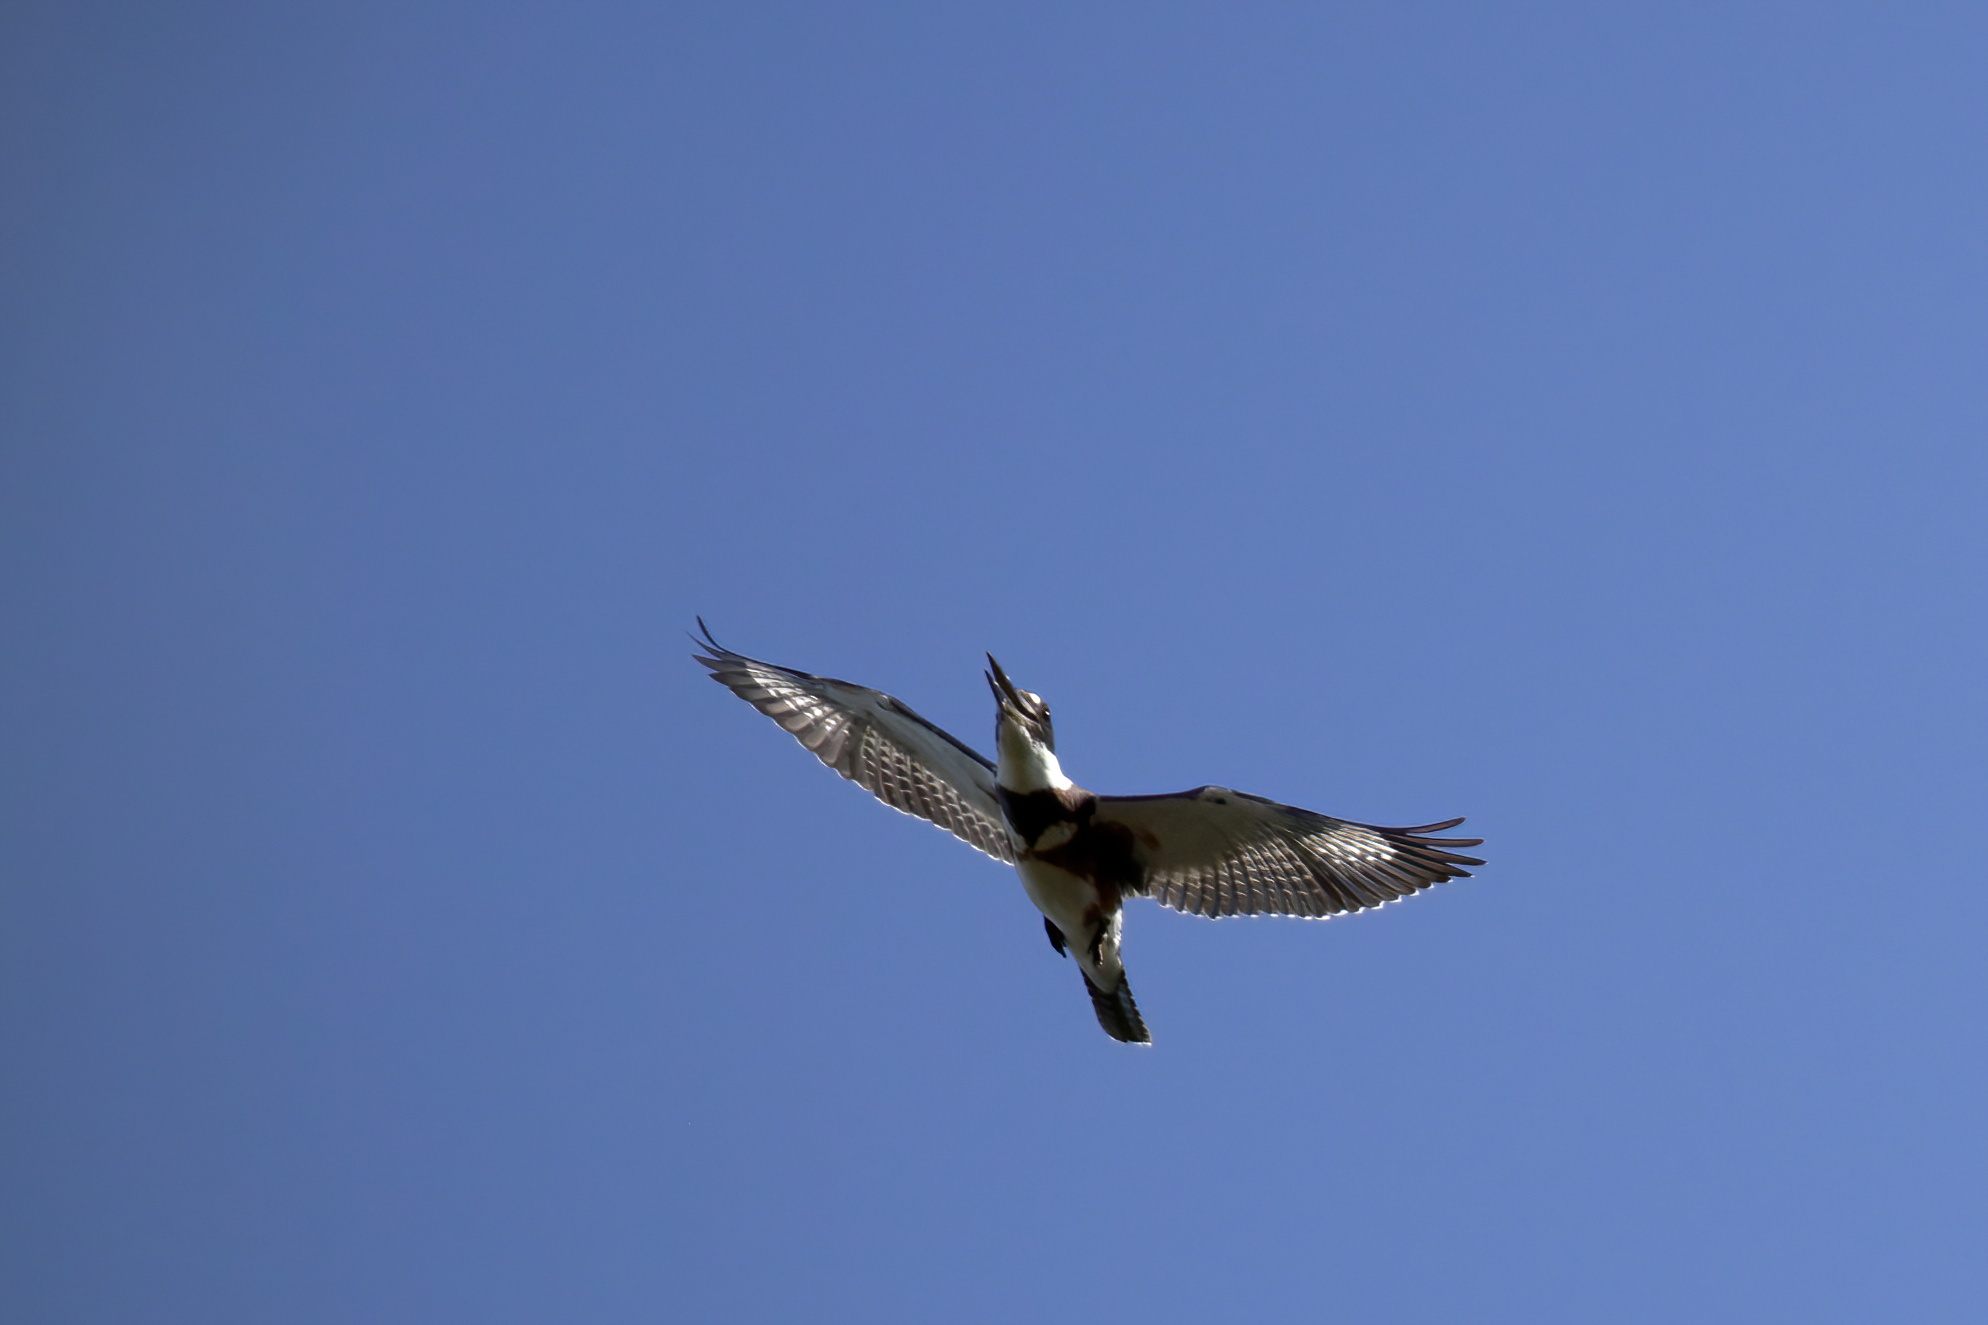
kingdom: Animalia
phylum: Chordata
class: Aves
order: Coraciiformes
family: Alcedinidae
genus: Megaceryle
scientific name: Megaceryle alcyon
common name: Belted kingfisher
